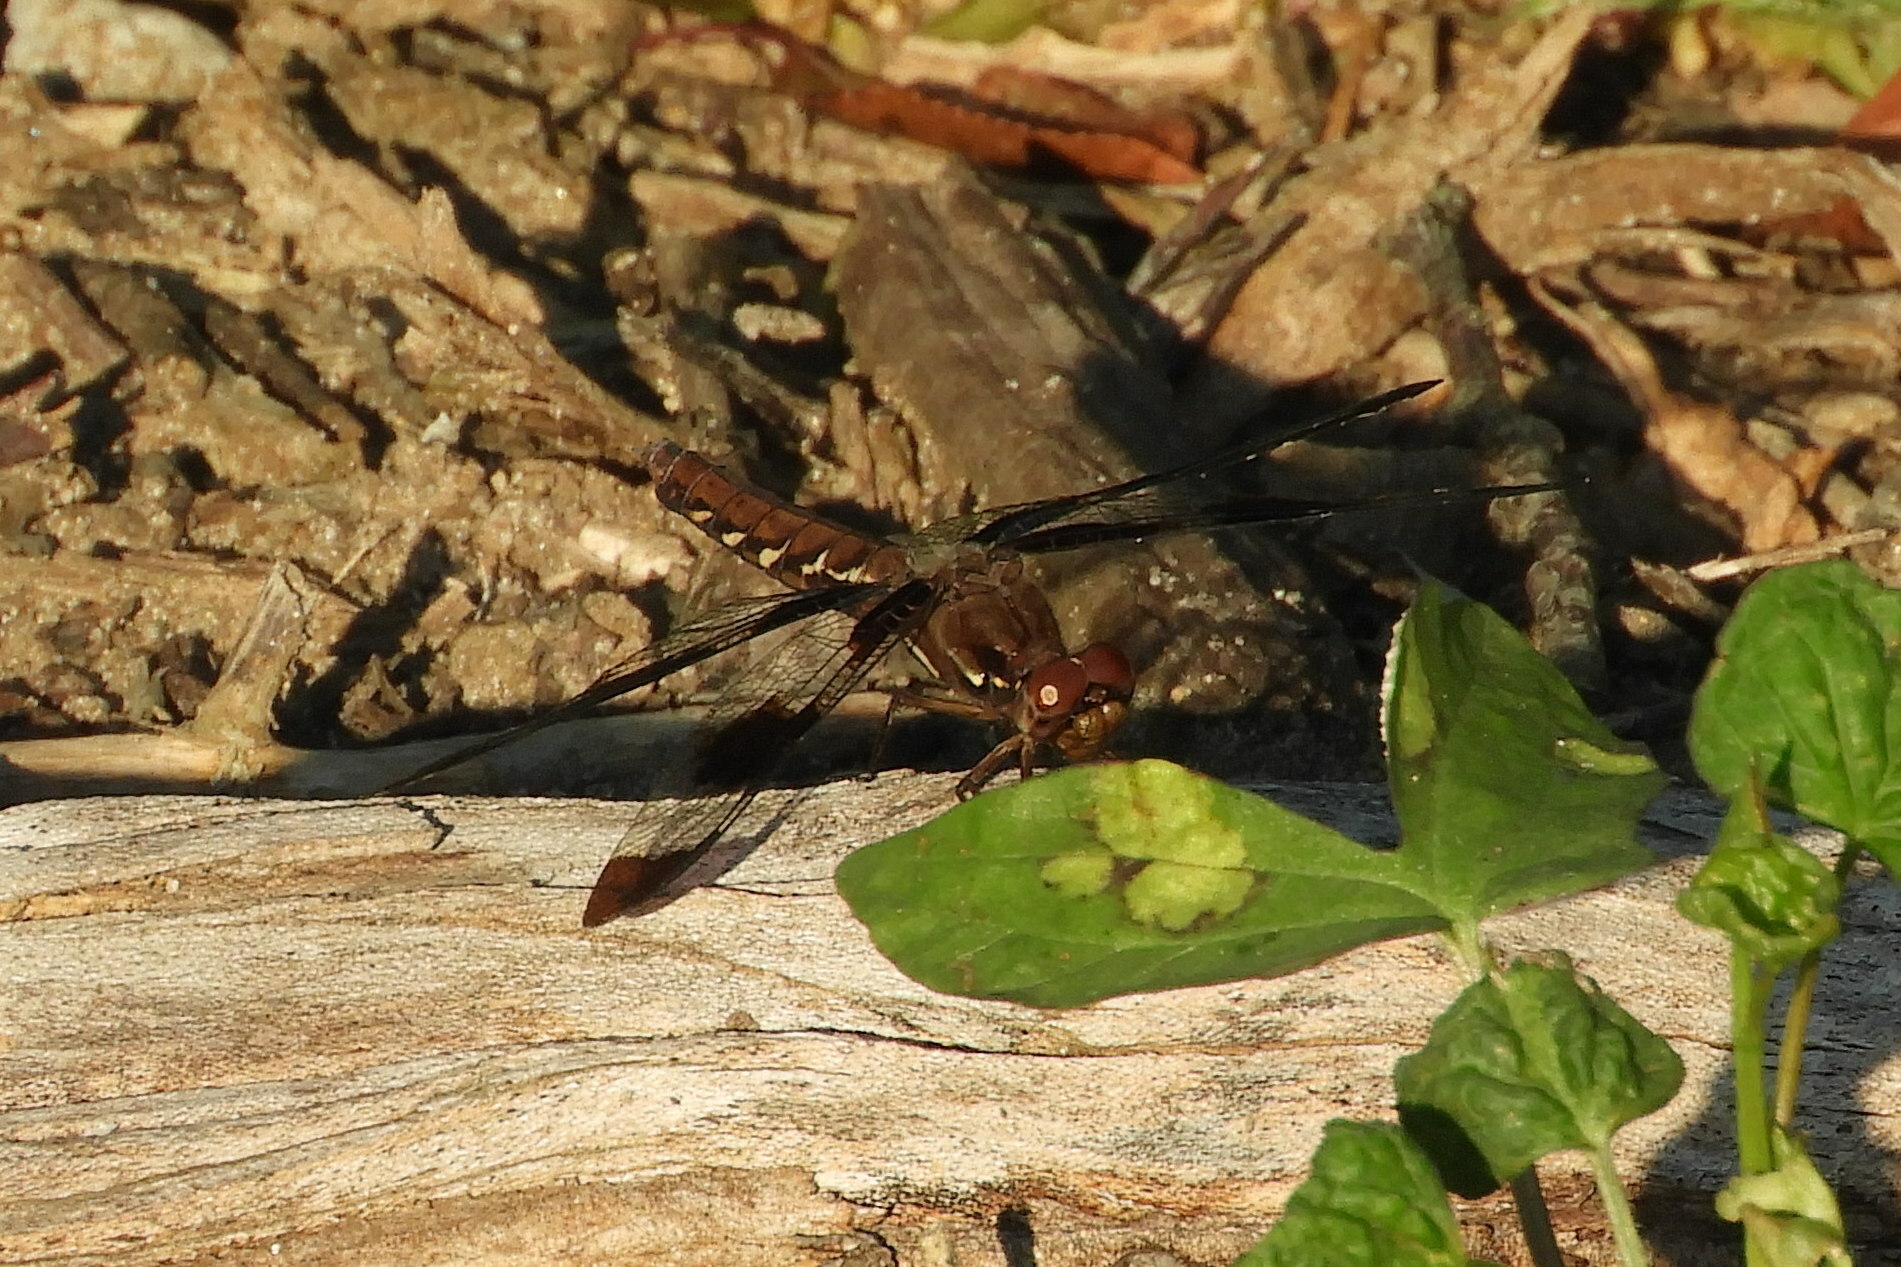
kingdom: Animalia
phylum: Arthropoda
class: Insecta
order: Odonata
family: Libellulidae
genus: Plathemis
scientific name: Plathemis lydia
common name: Common whitetail
